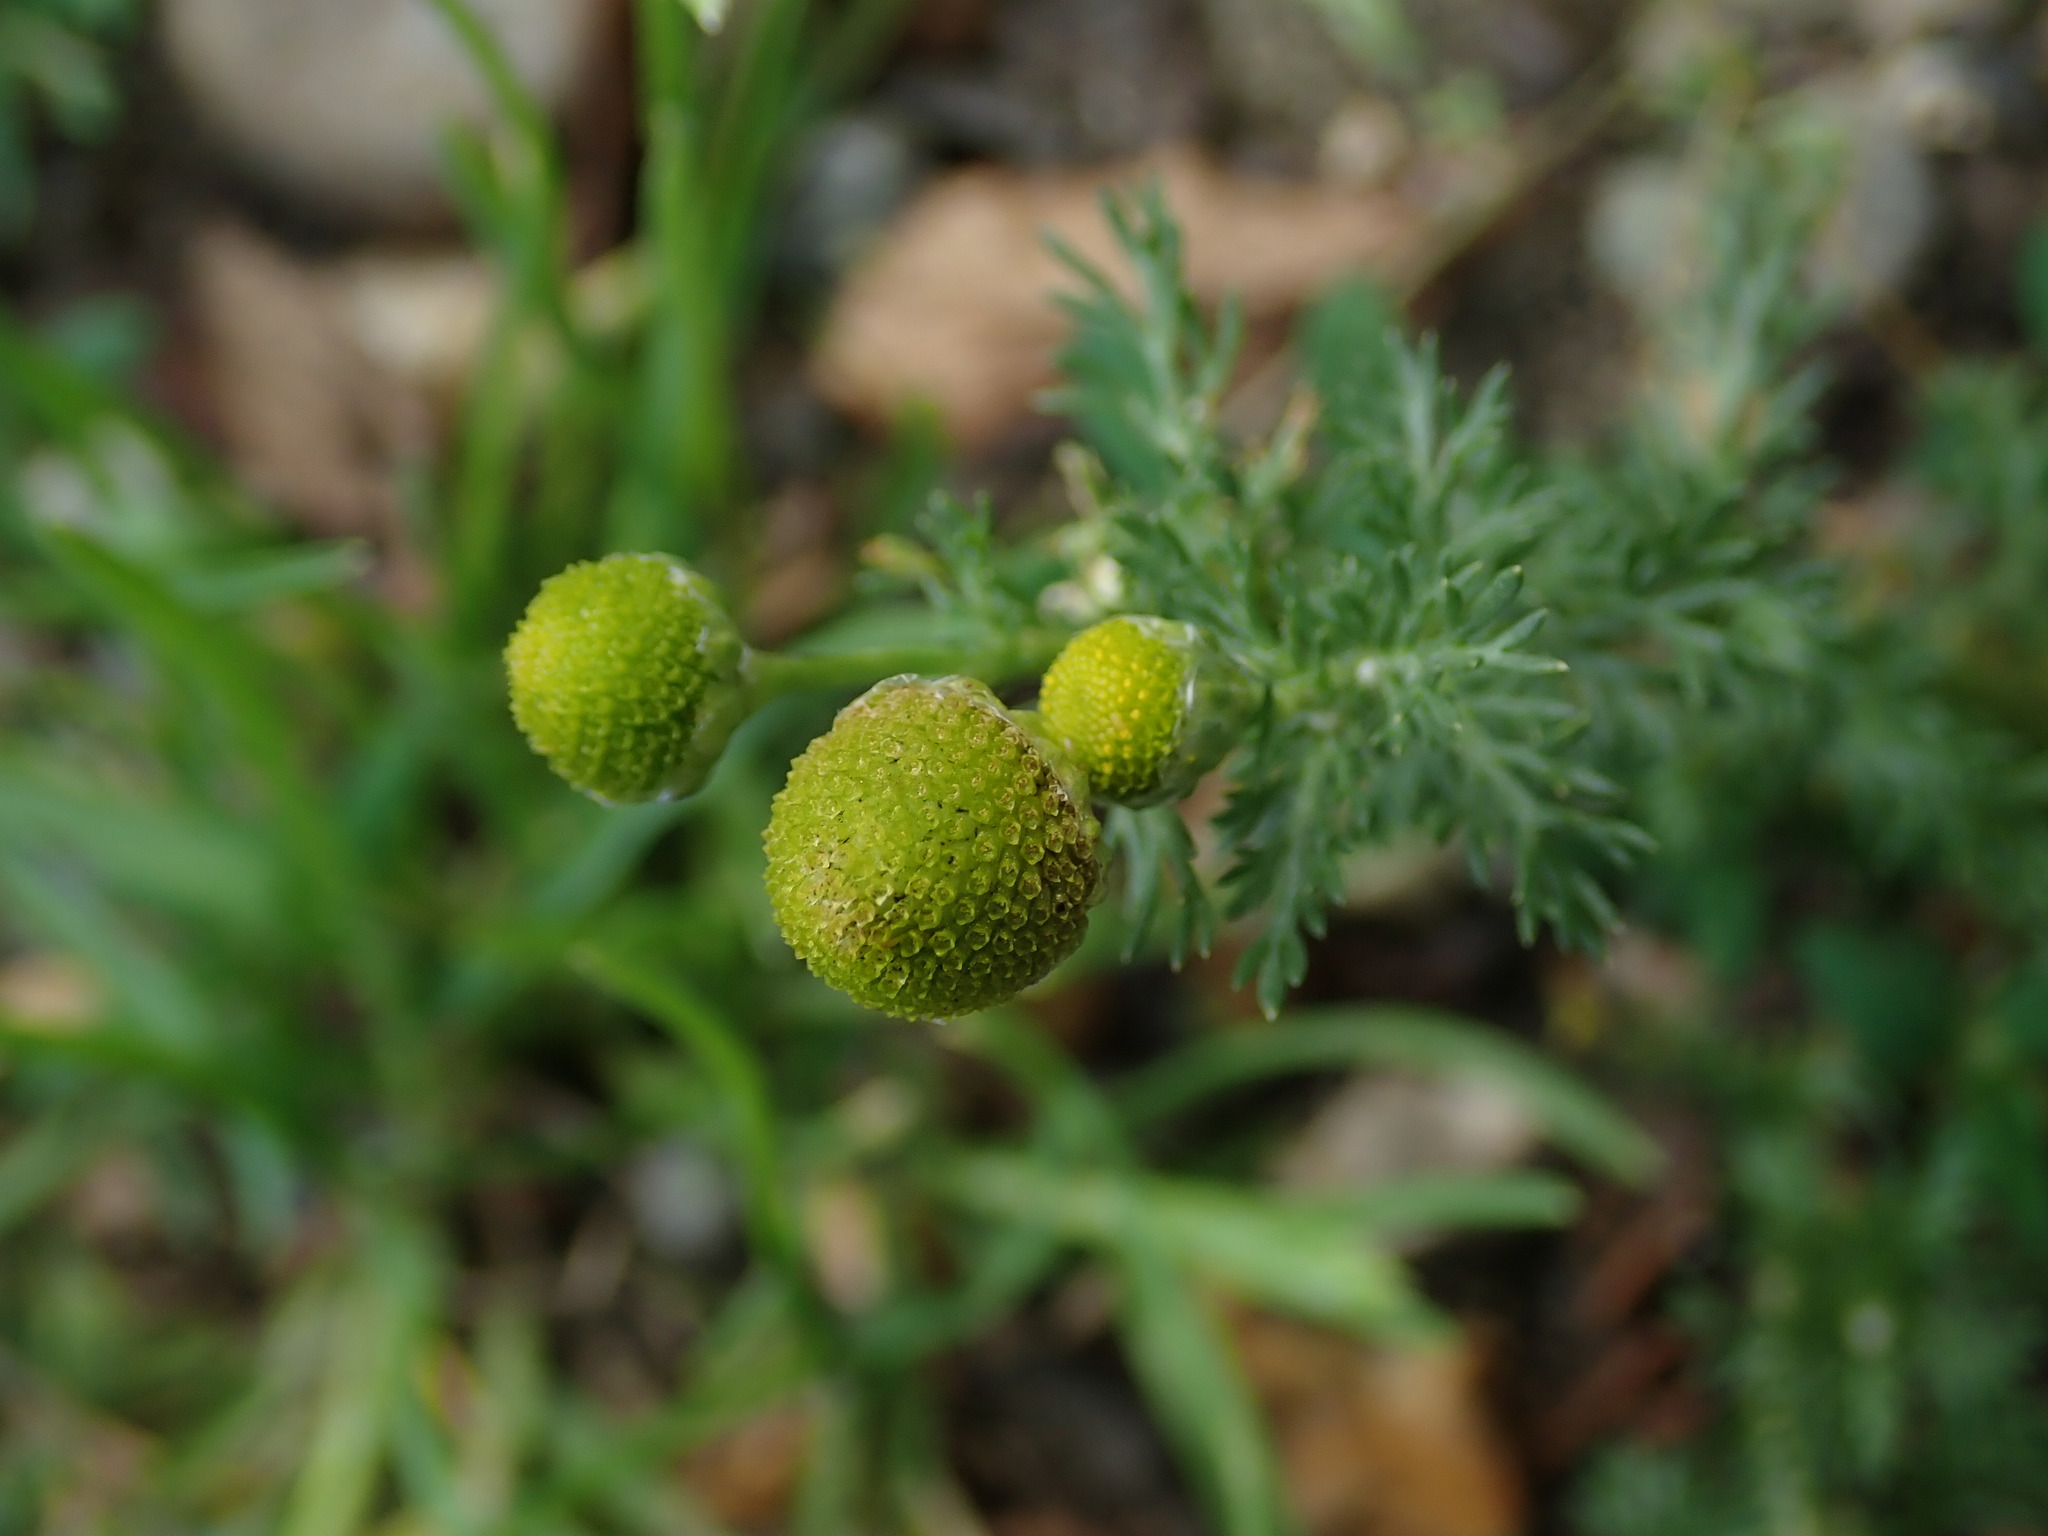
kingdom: Plantae
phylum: Tracheophyta
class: Magnoliopsida
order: Asterales
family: Asteraceae
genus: Matricaria
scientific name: Matricaria discoidea
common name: Disc mayweed
